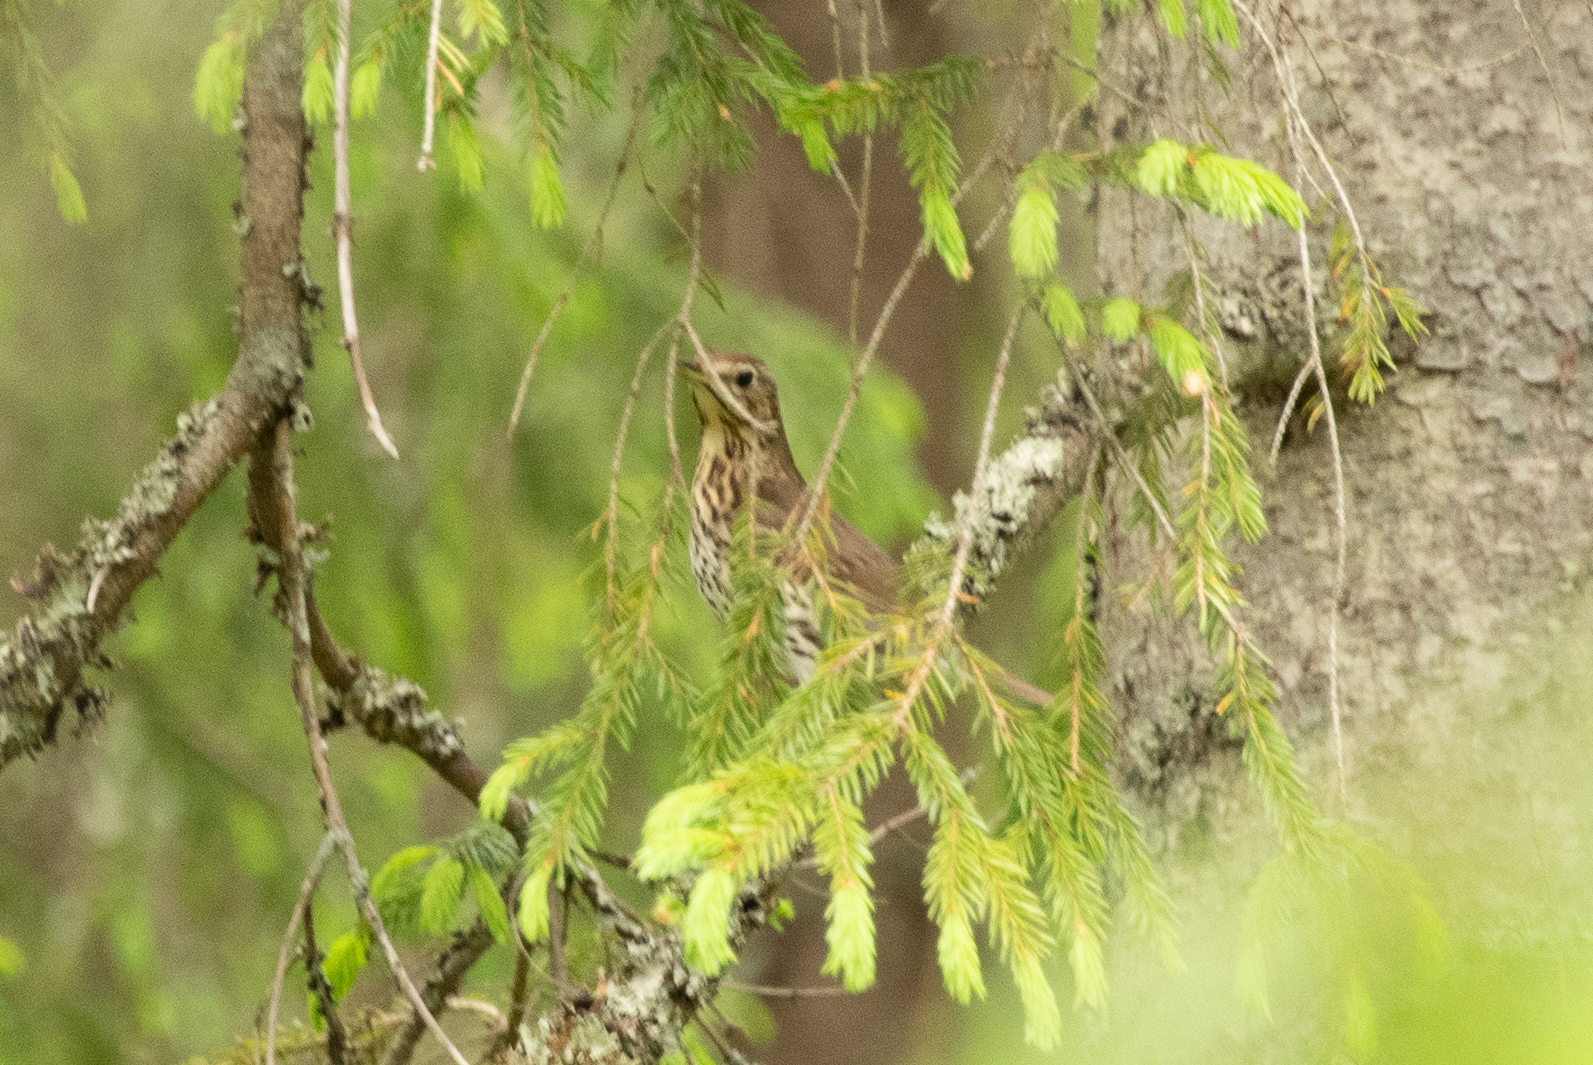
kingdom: Animalia
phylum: Chordata
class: Aves
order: Passeriformes
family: Turdidae
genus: Turdus
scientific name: Turdus philomelos
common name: Song thrush
